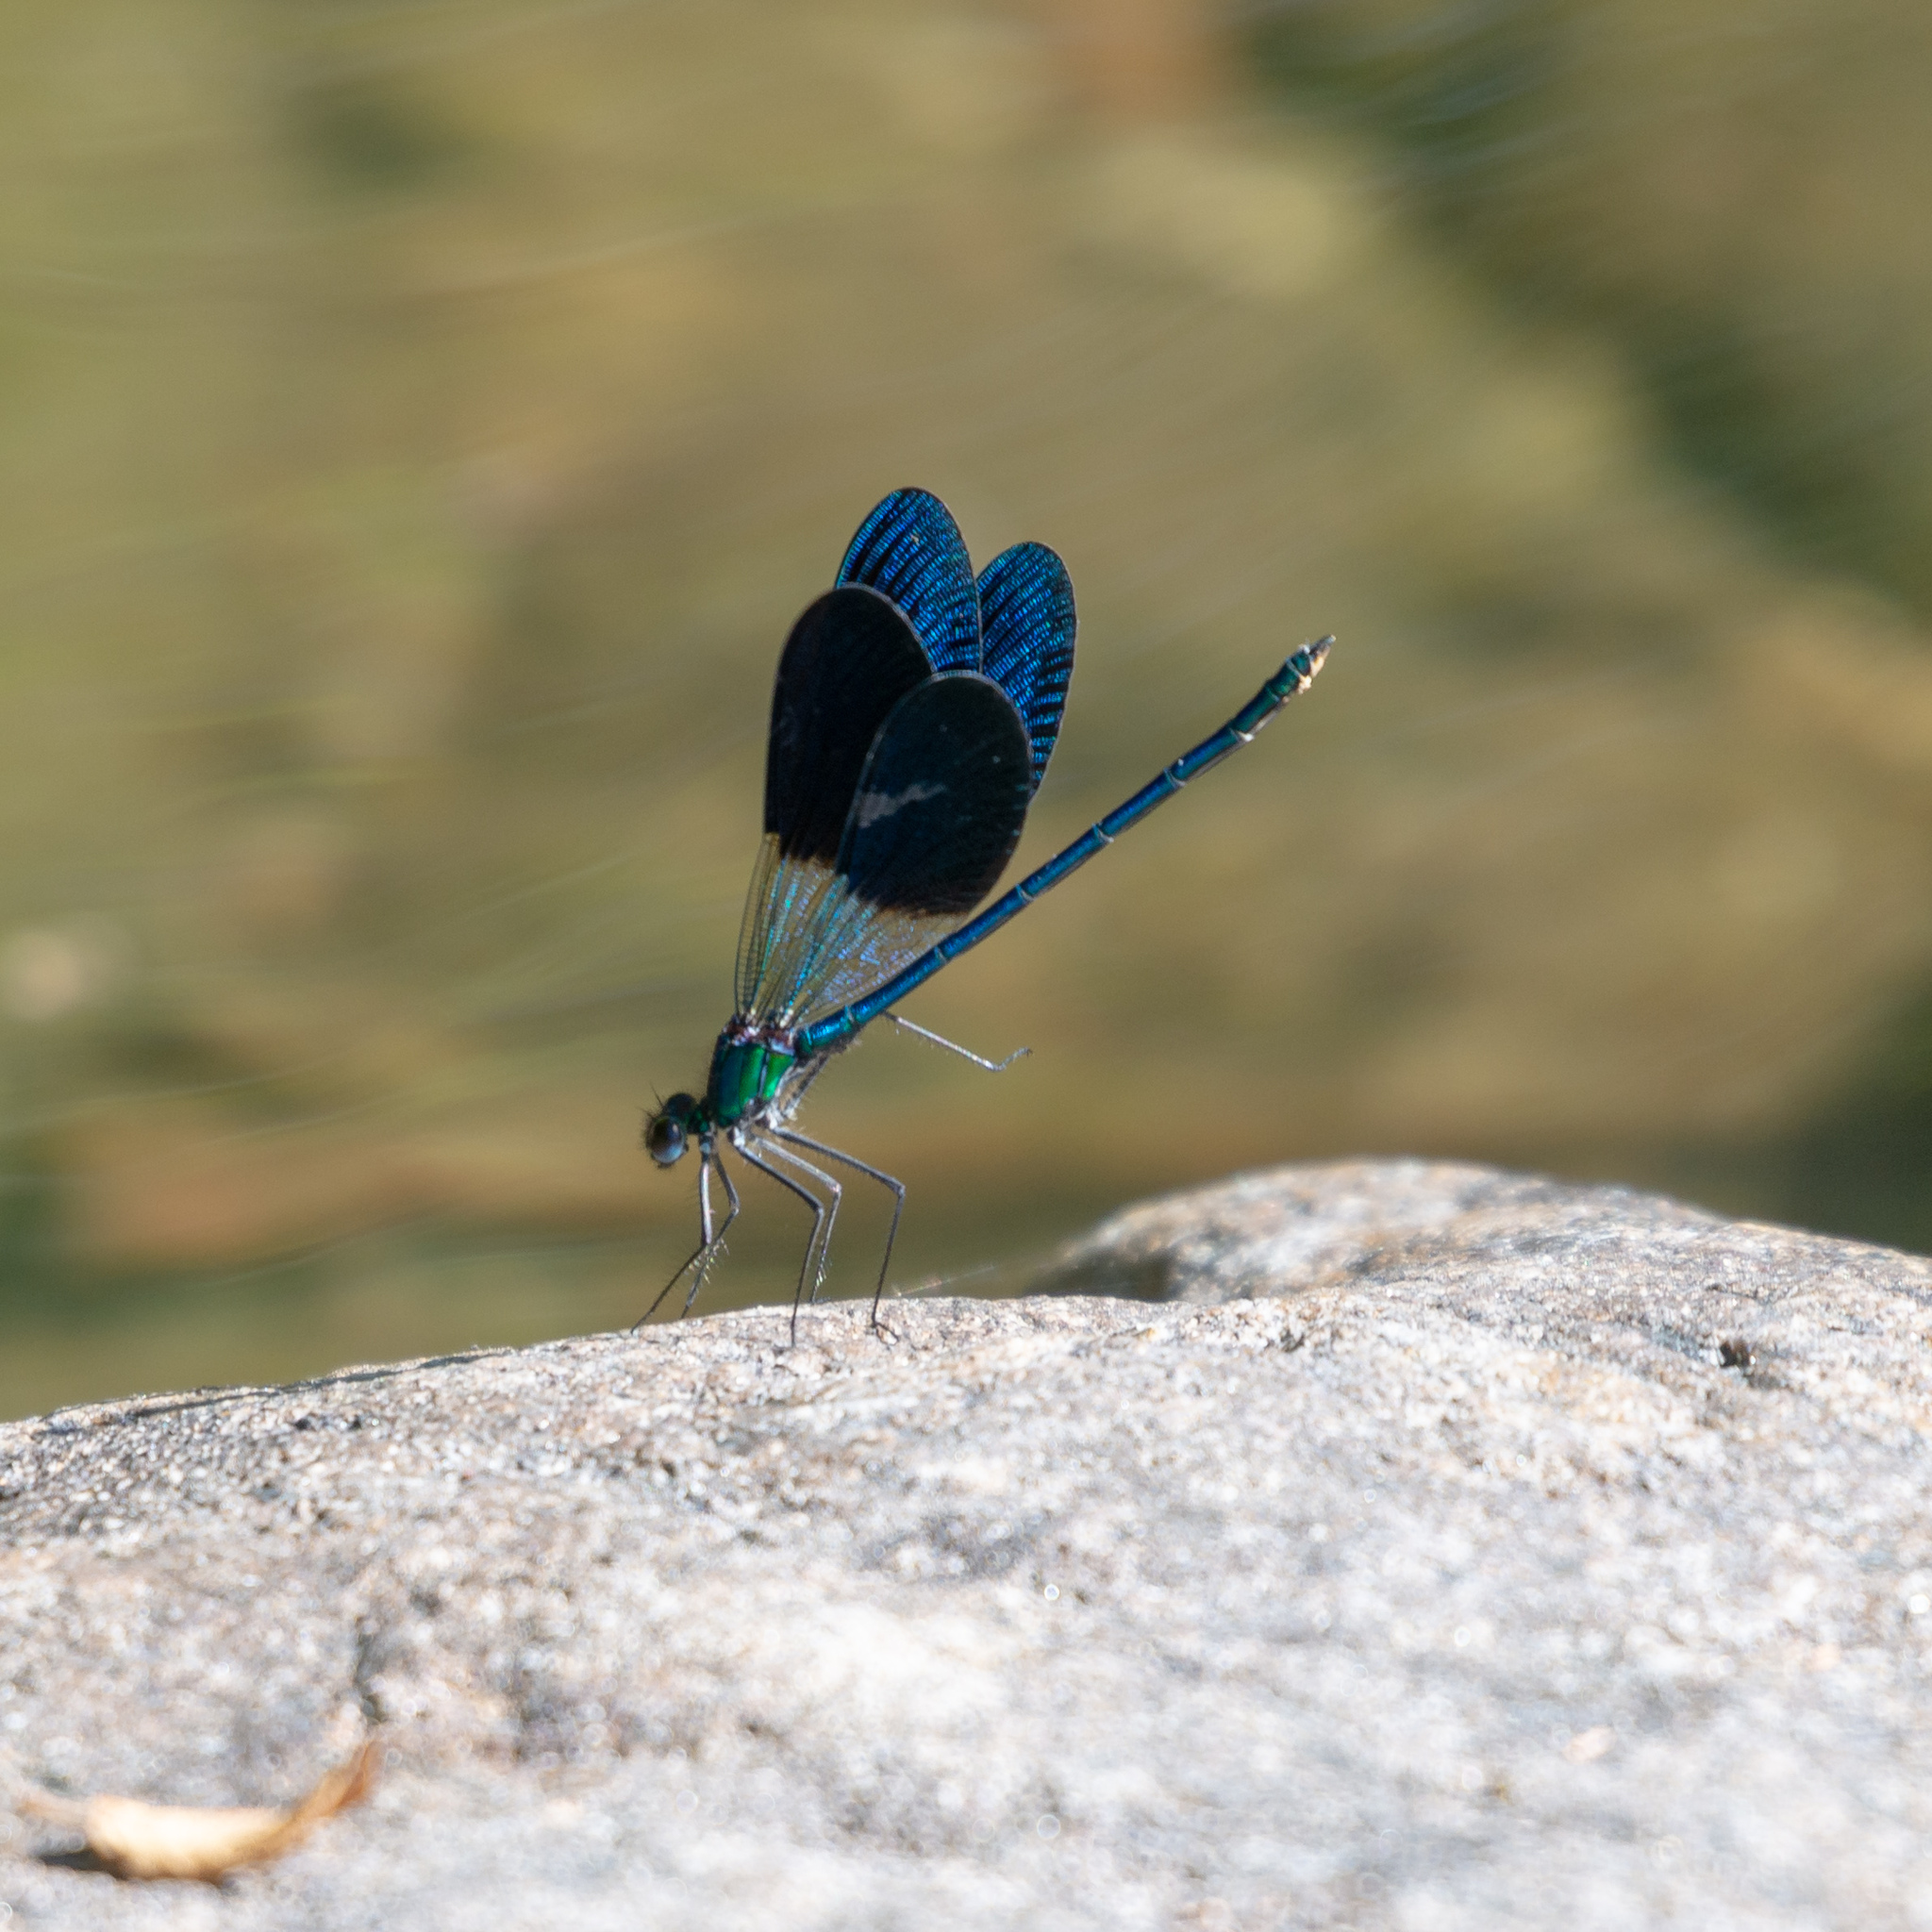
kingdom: Animalia
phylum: Arthropoda
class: Insecta
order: Odonata
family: Calopterygidae
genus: Calopteryx
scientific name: Calopteryx xanthostoma
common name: Western demoiselle
